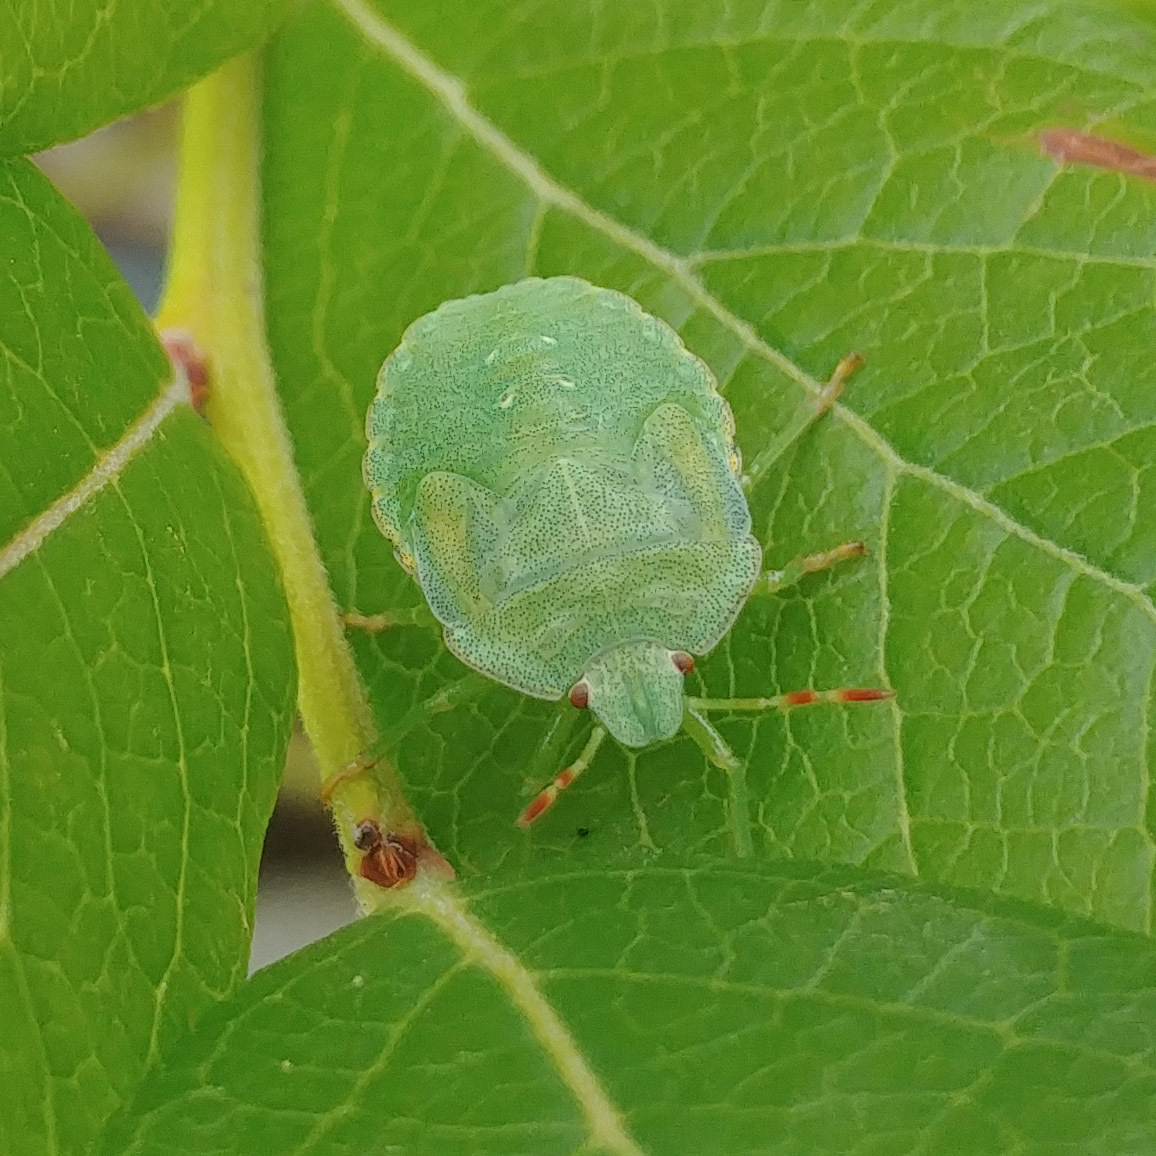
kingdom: Animalia
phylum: Arthropoda
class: Insecta
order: Hemiptera
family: Pentatomidae
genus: Palomena
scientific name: Palomena prasina
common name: Green shieldbug
